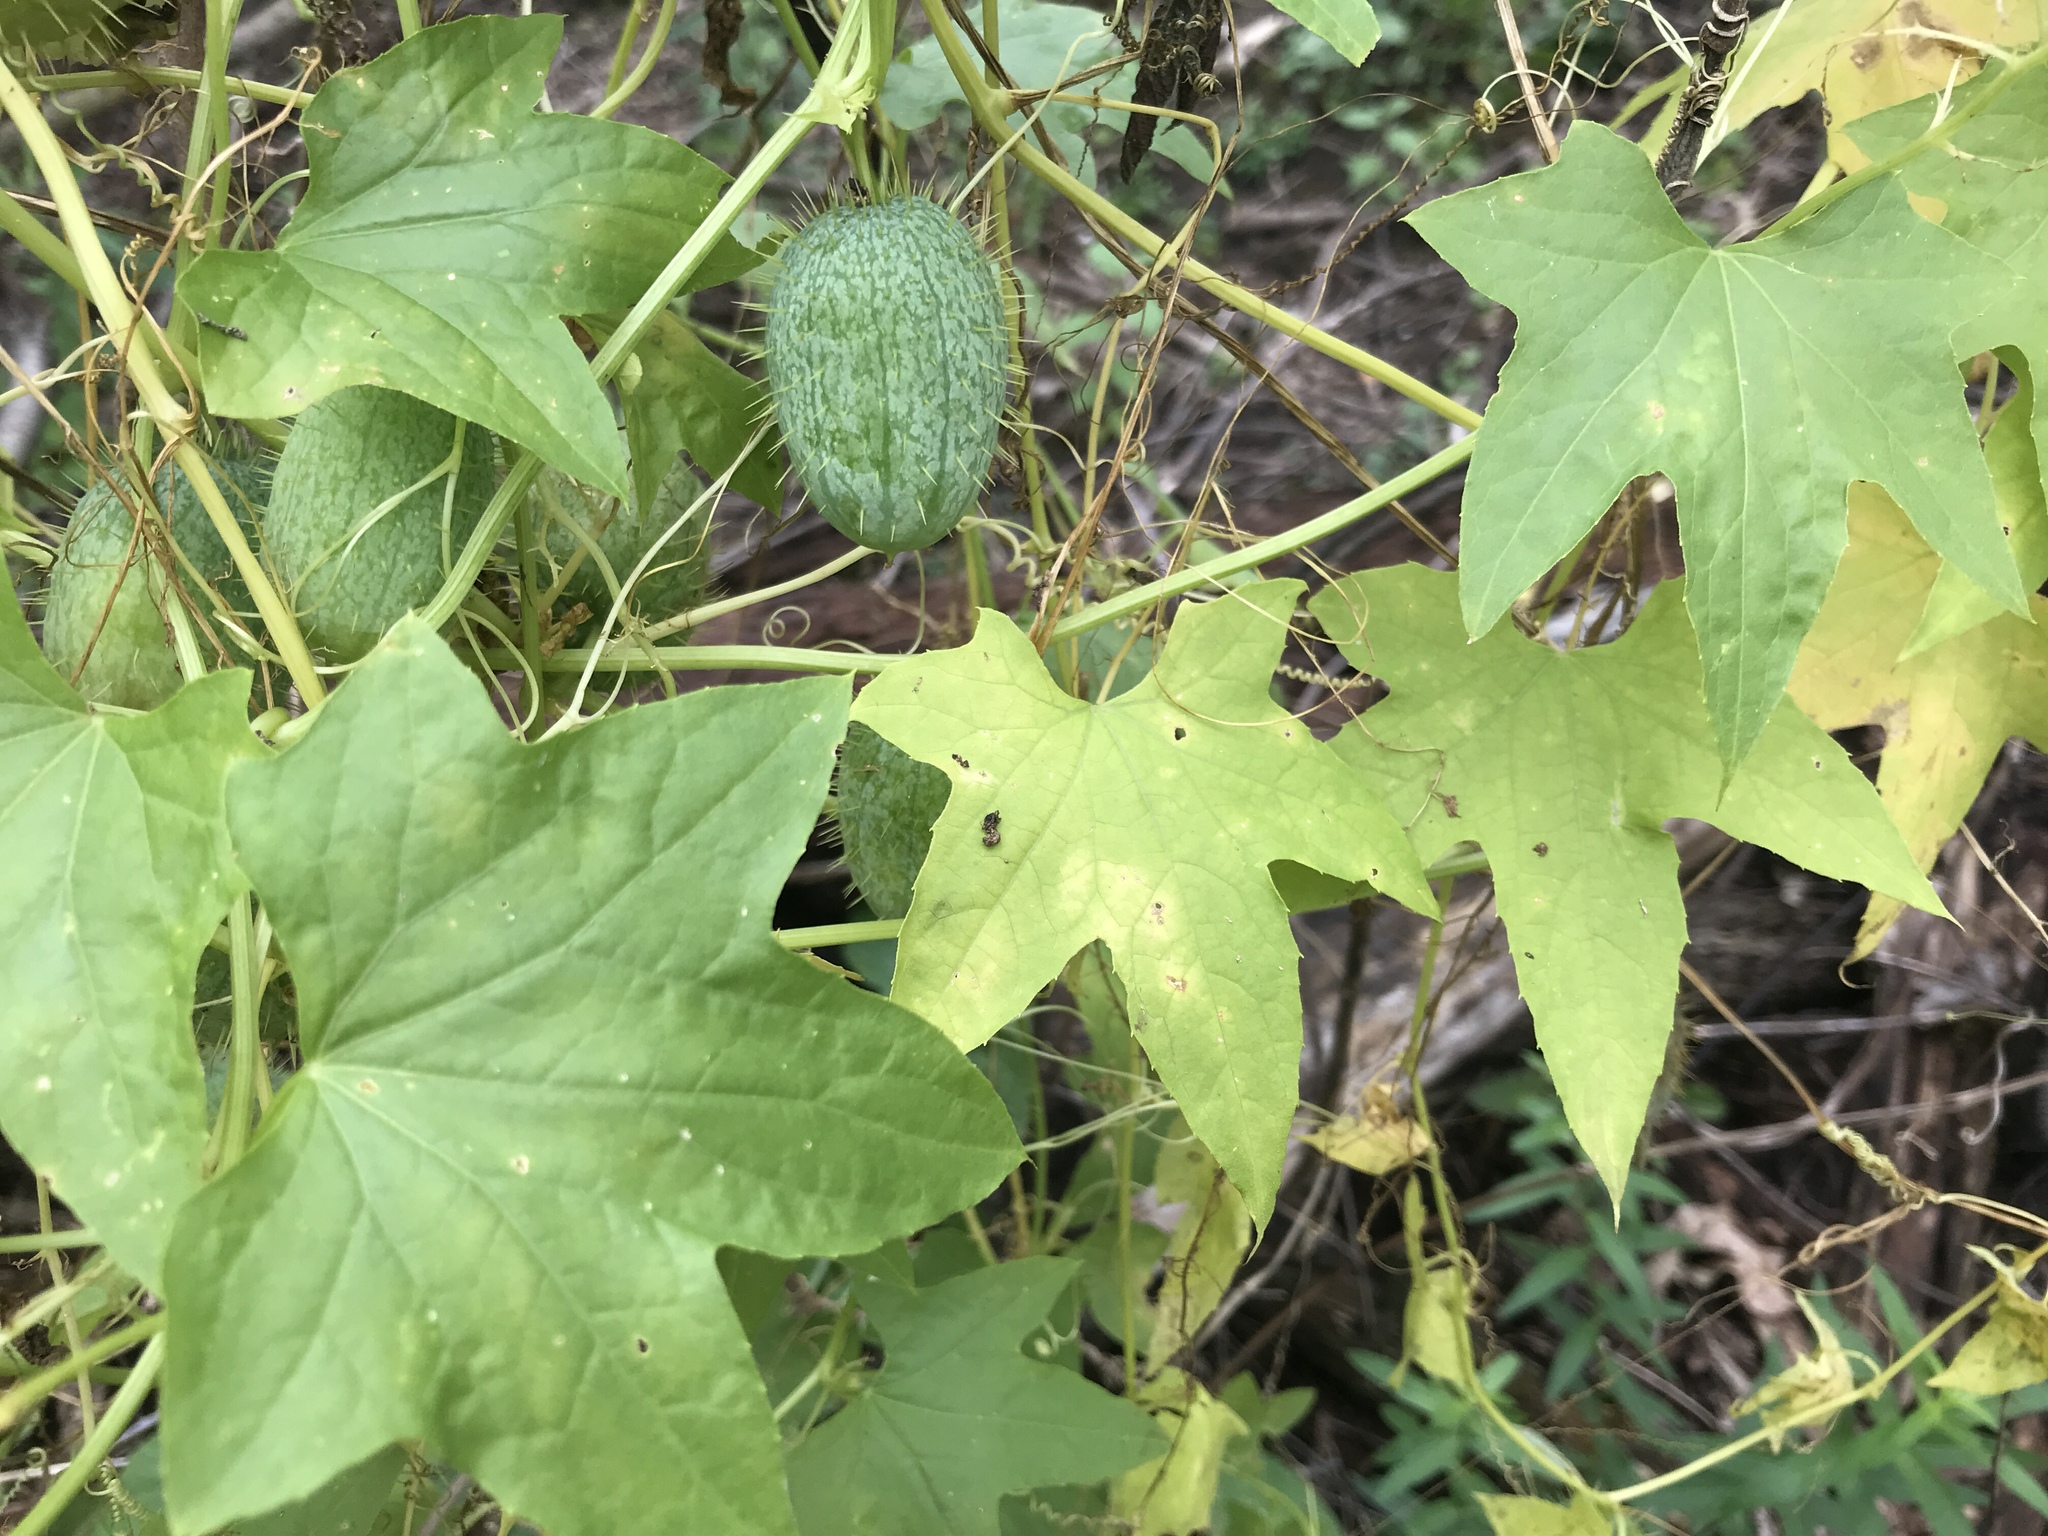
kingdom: Plantae
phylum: Tracheophyta
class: Magnoliopsida
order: Cucurbitales
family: Cucurbitaceae
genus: Echinocystis
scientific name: Echinocystis lobata
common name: Wild cucumber
